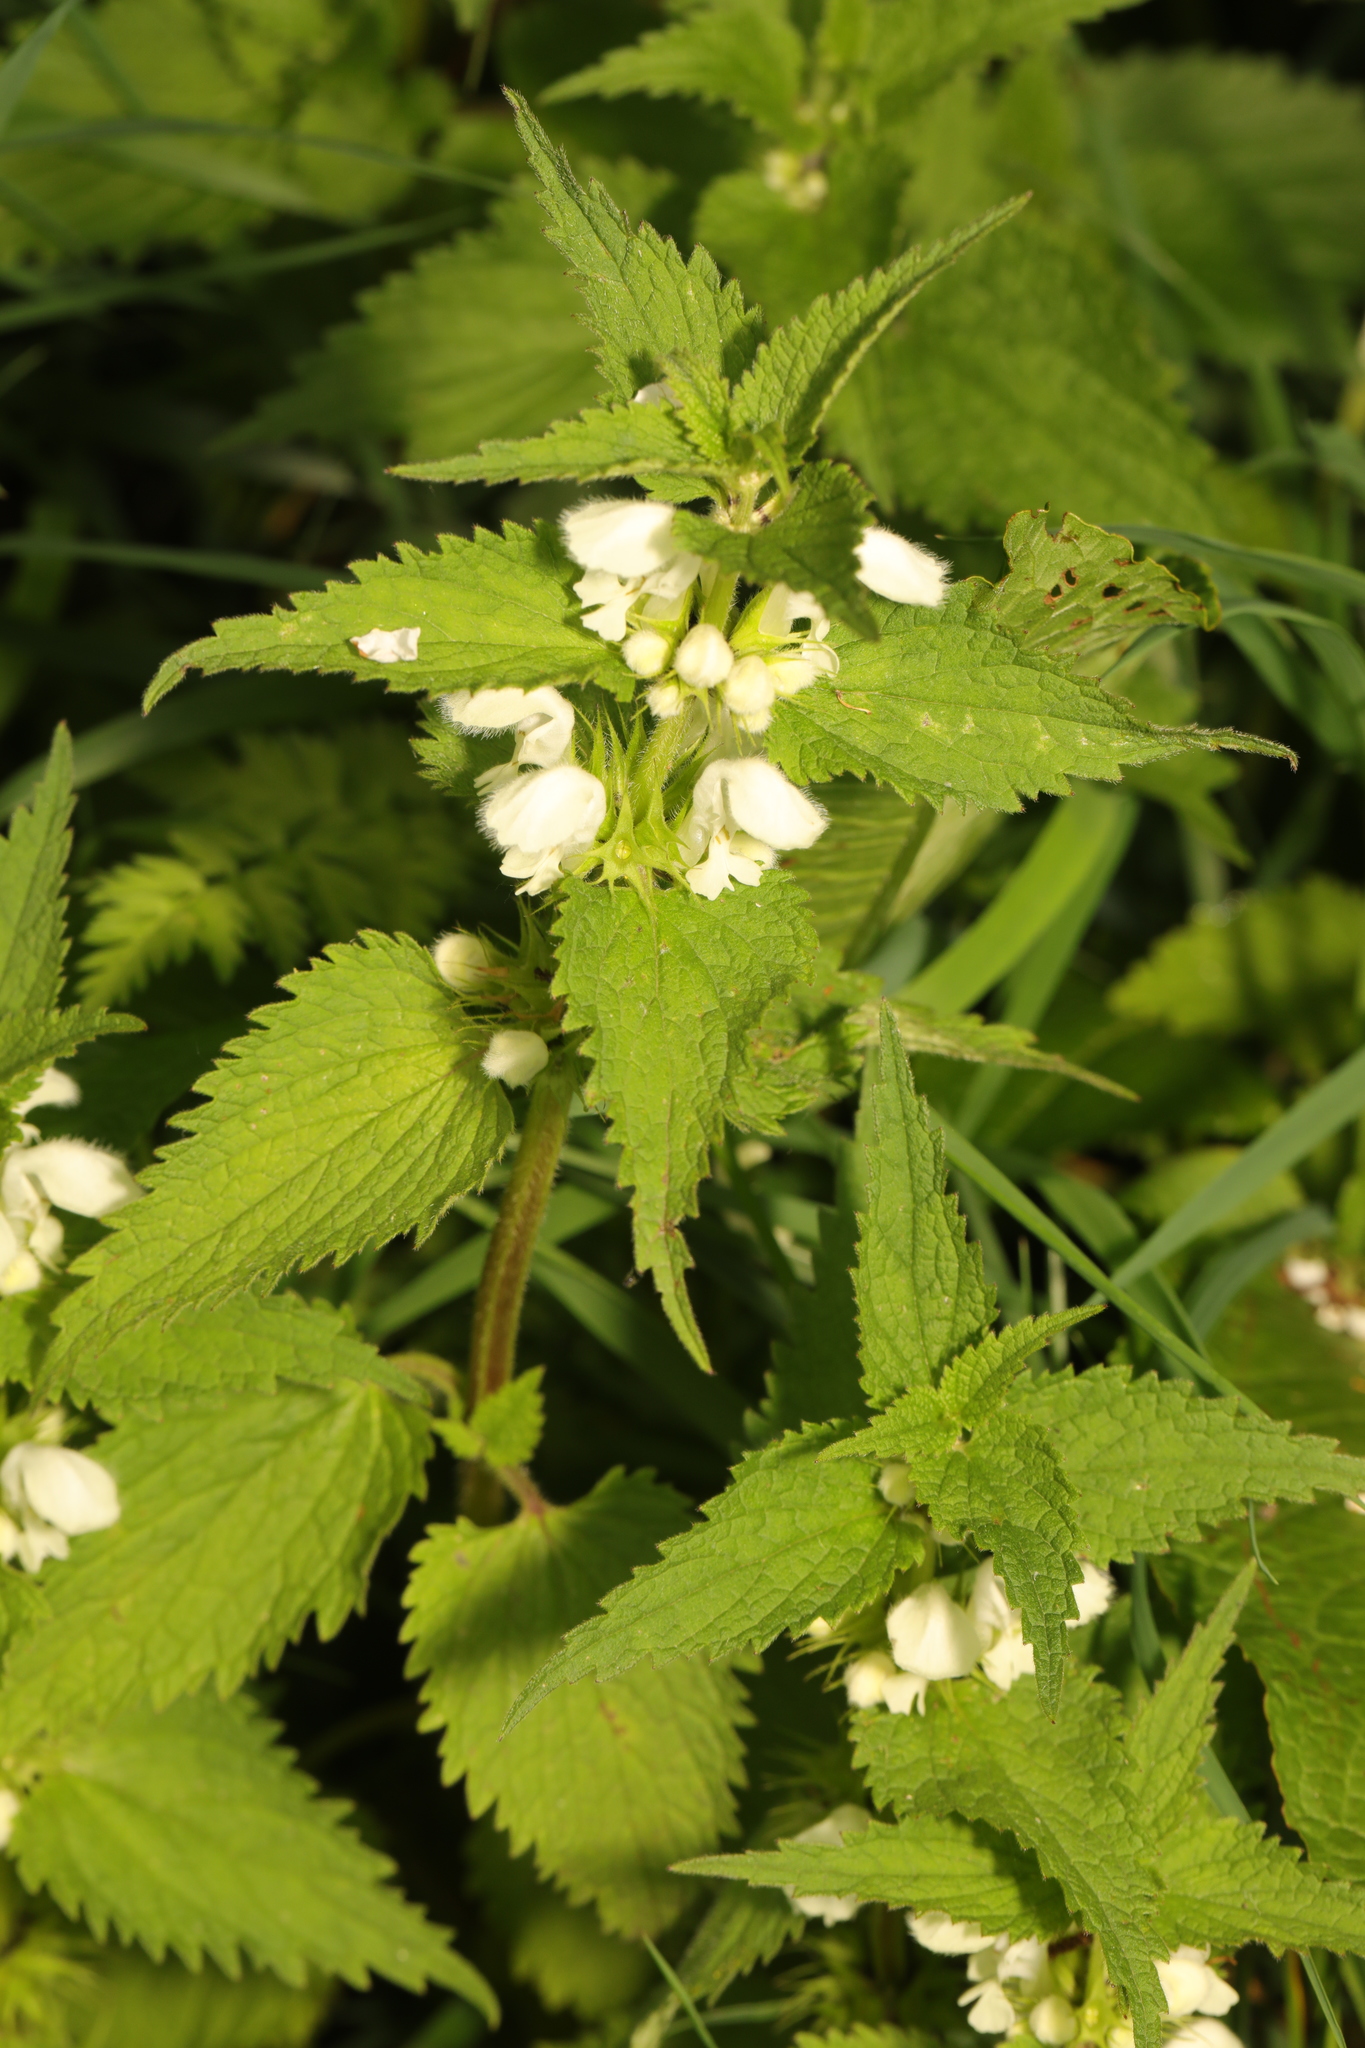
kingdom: Plantae
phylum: Tracheophyta
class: Magnoliopsida
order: Lamiales
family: Lamiaceae
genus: Lamium
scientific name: Lamium album
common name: White dead-nettle
